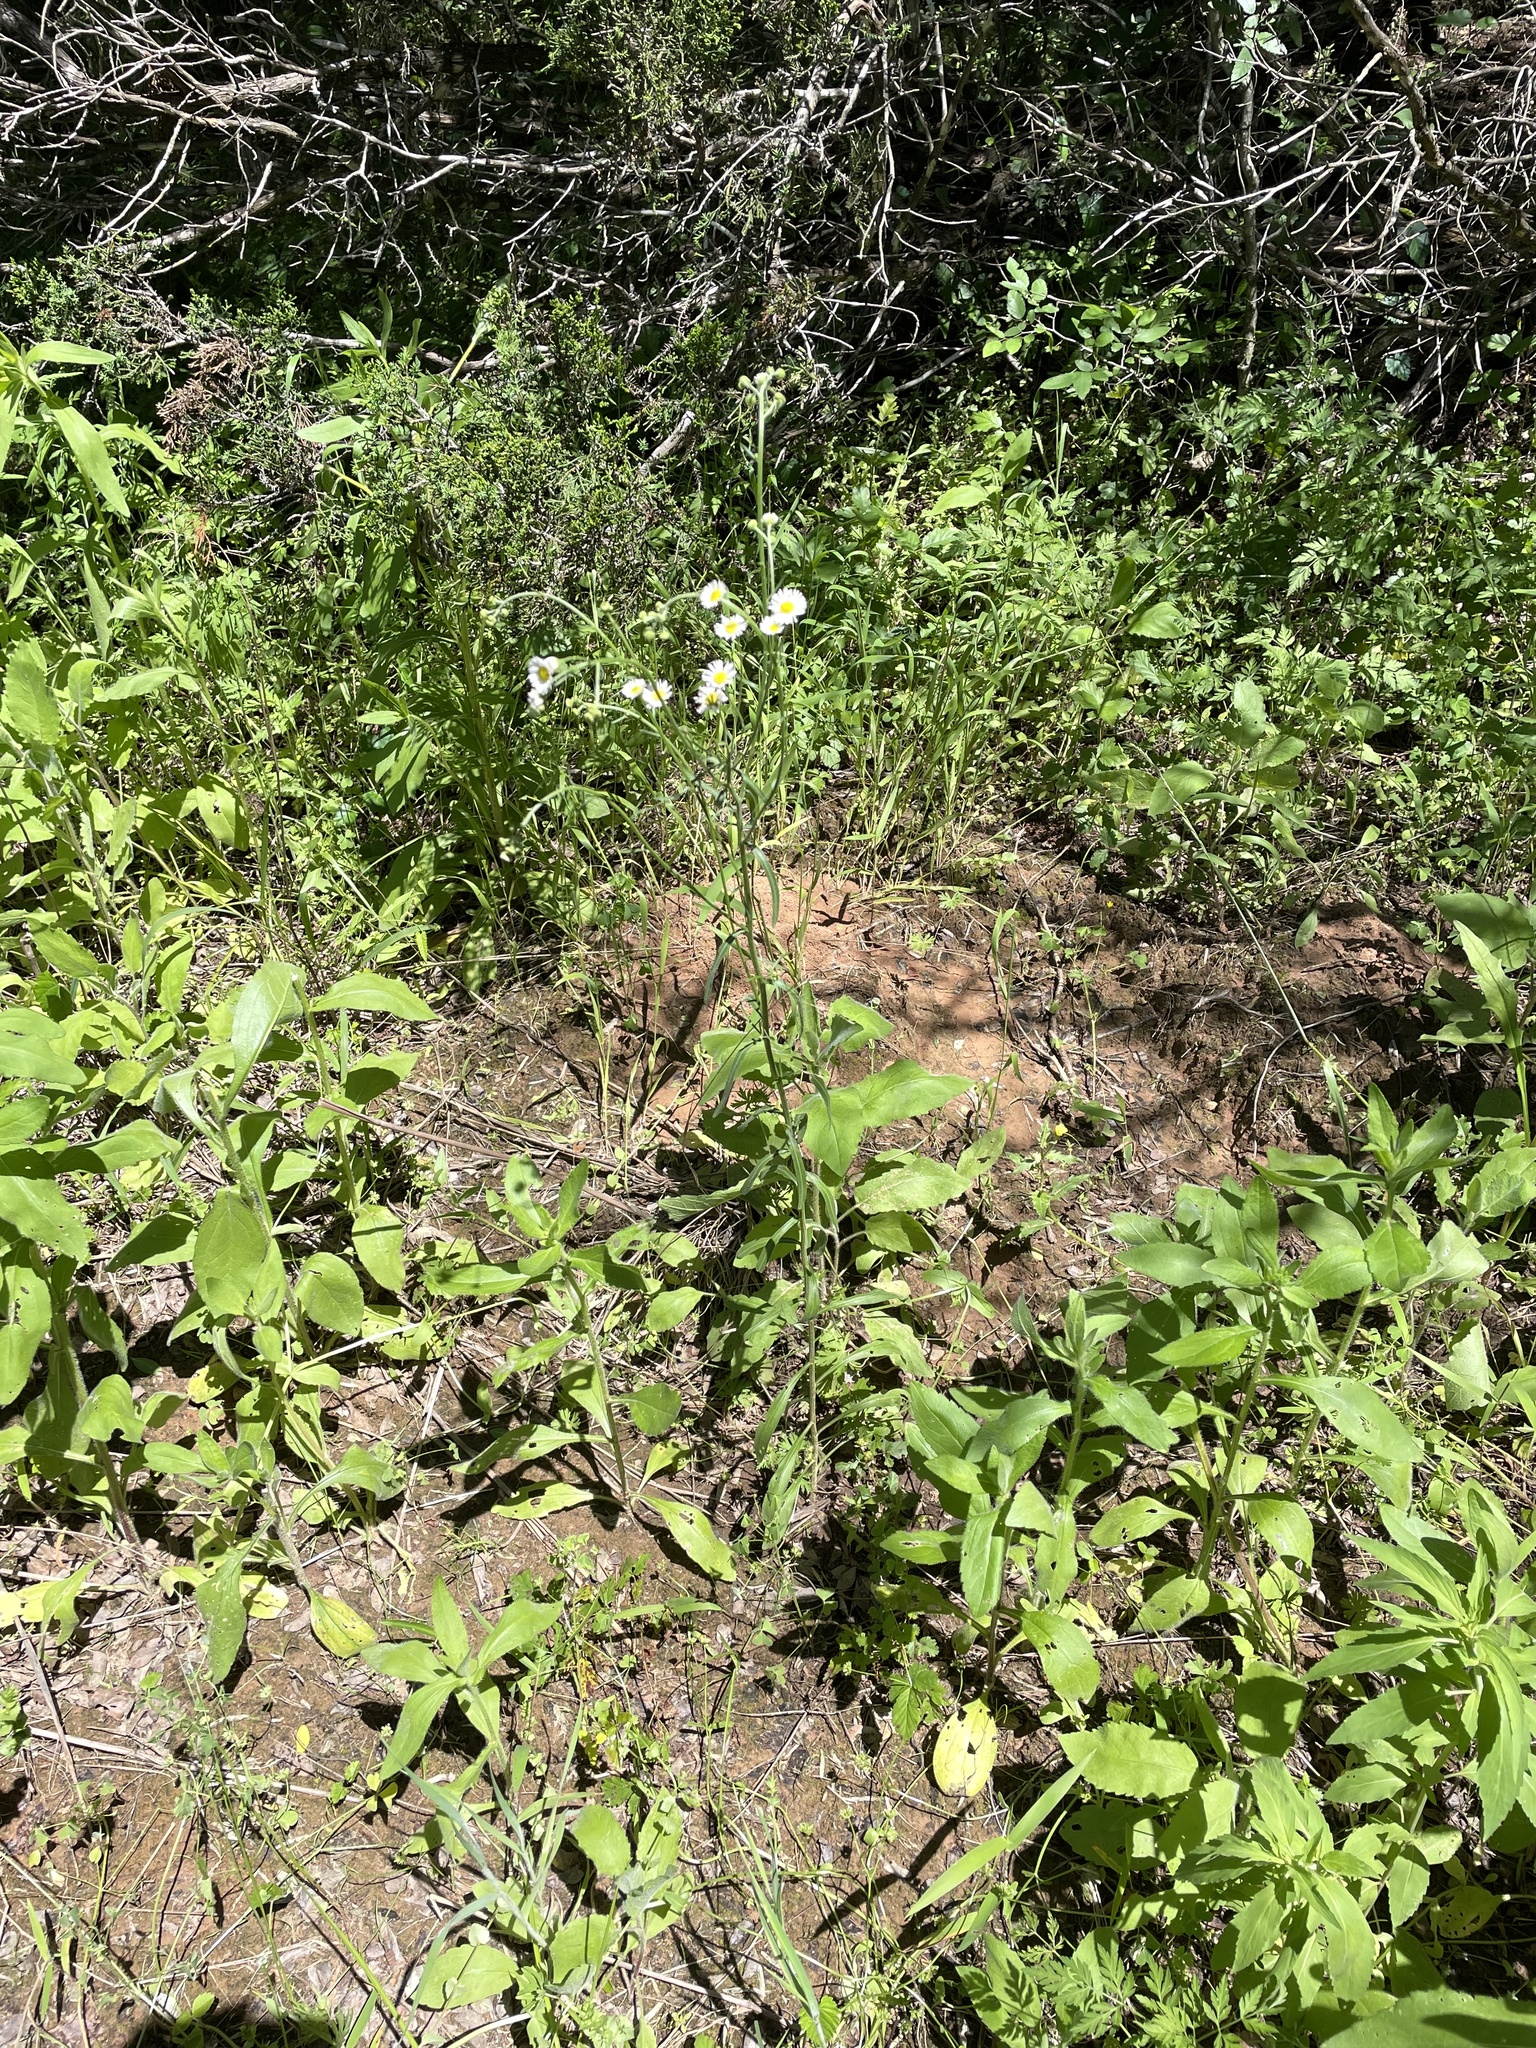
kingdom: Plantae
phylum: Tracheophyta
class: Magnoliopsida
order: Asterales
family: Asteraceae
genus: Erigeron
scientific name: Erigeron strigosus
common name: Common eastern fleabane
